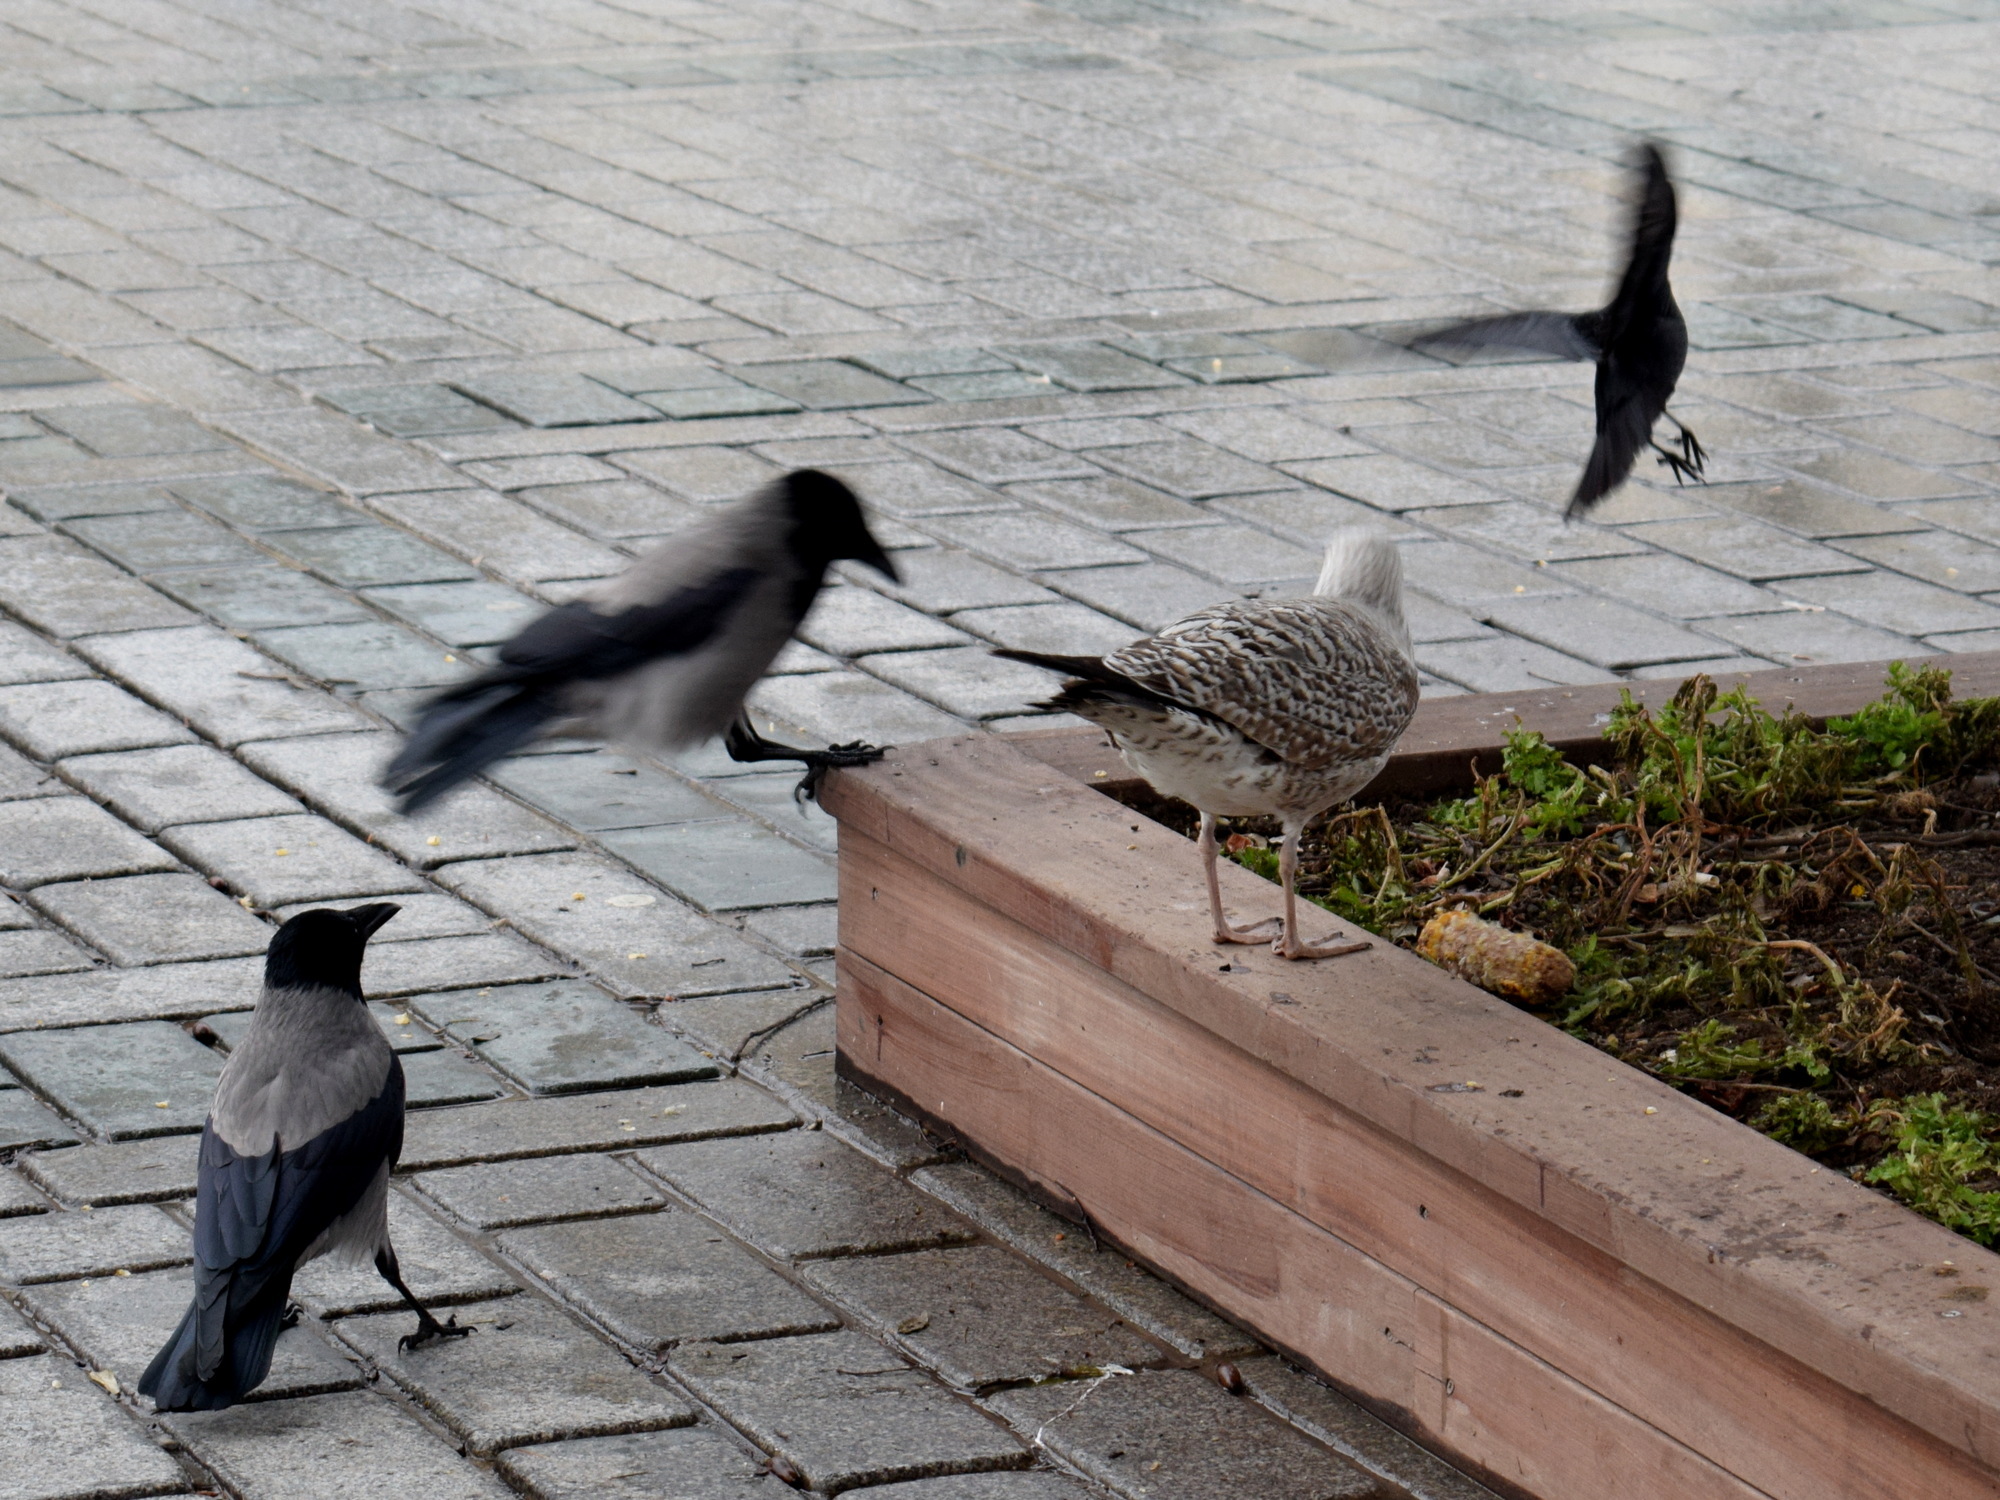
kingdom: Animalia
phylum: Chordata
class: Aves
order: Passeriformes
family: Corvidae
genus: Corvus
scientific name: Corvus cornix
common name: Hooded crow
